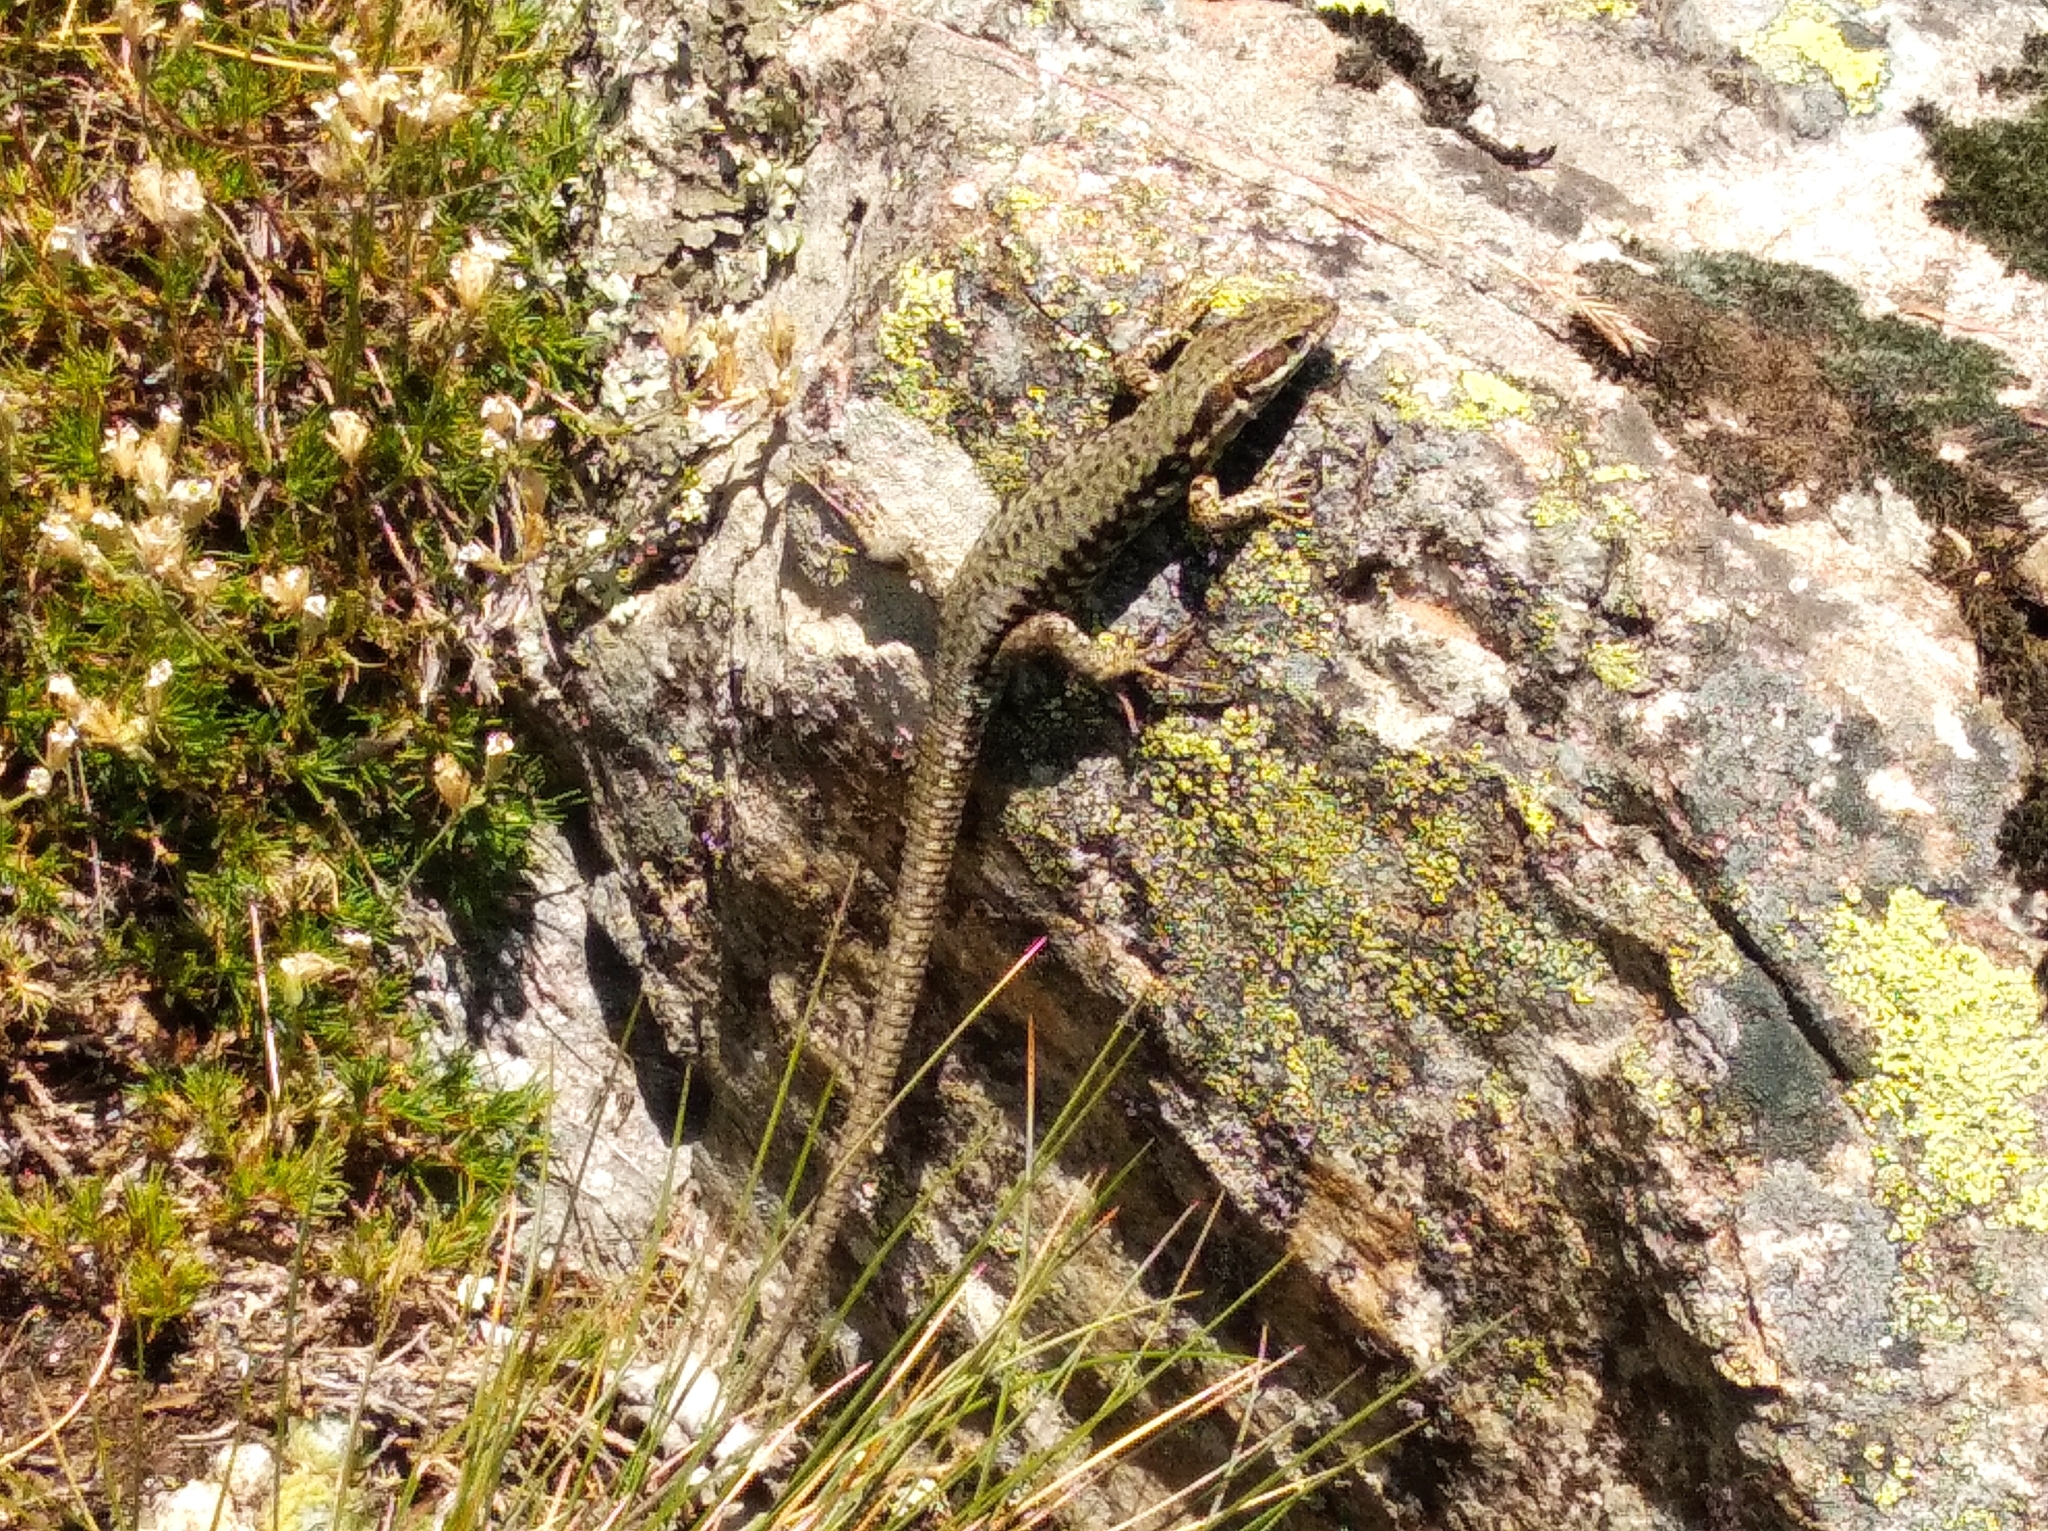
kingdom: Animalia
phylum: Chordata
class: Squamata
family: Lacertidae
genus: Podarcis
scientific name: Podarcis muralis
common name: Common wall lizard
